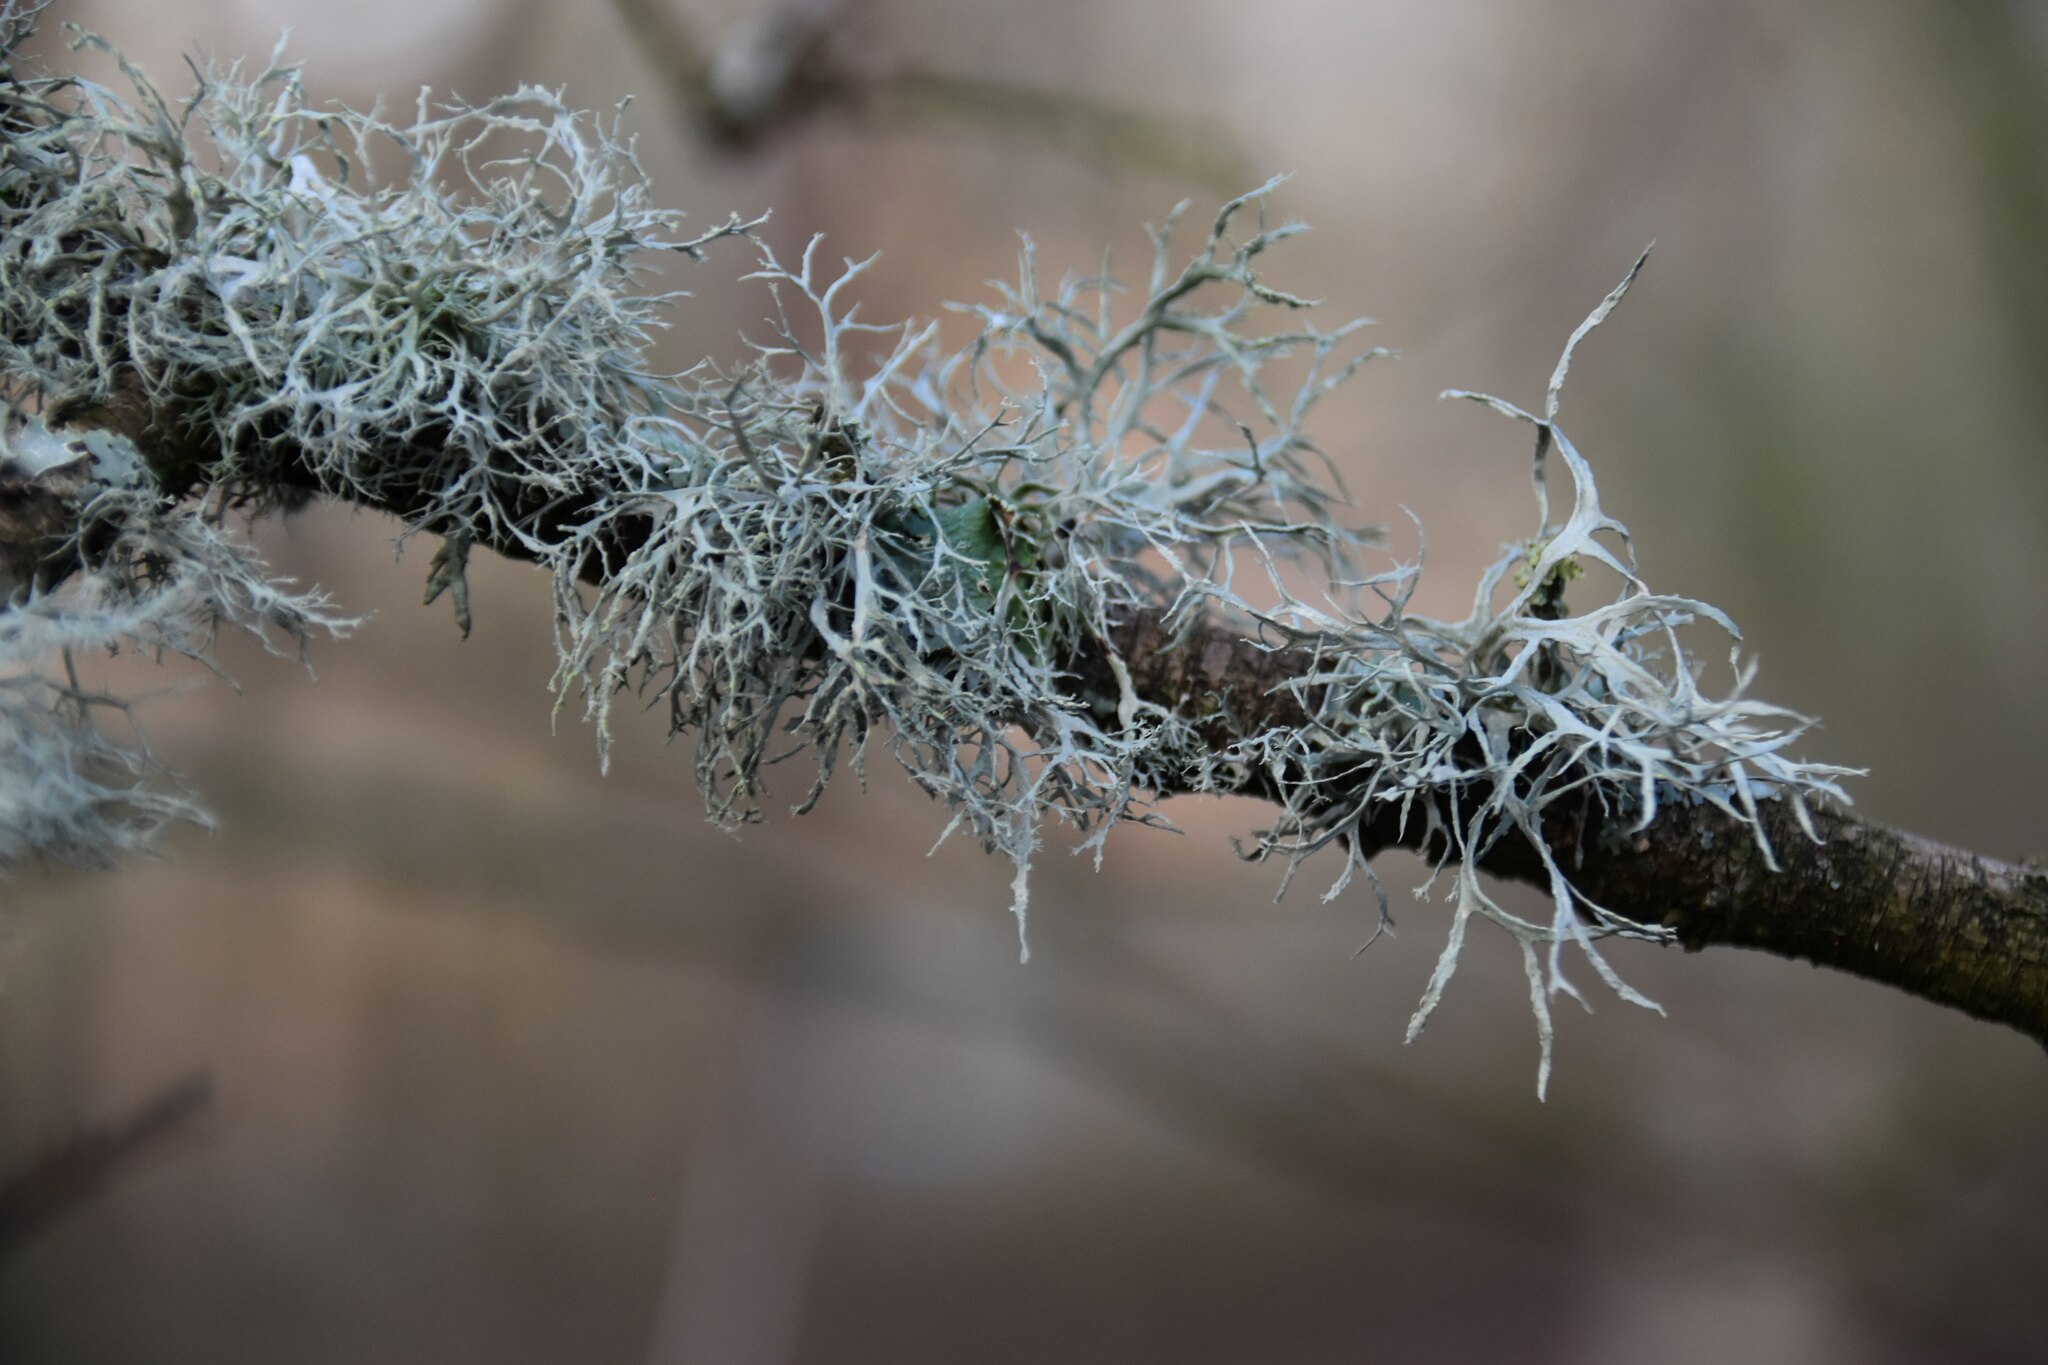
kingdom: Fungi
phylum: Ascomycota
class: Lecanoromycetes
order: Lecanorales
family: Ramalinaceae
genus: Ramalina
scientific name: Ramalina farinacea
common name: Farinose cartilage lichen
